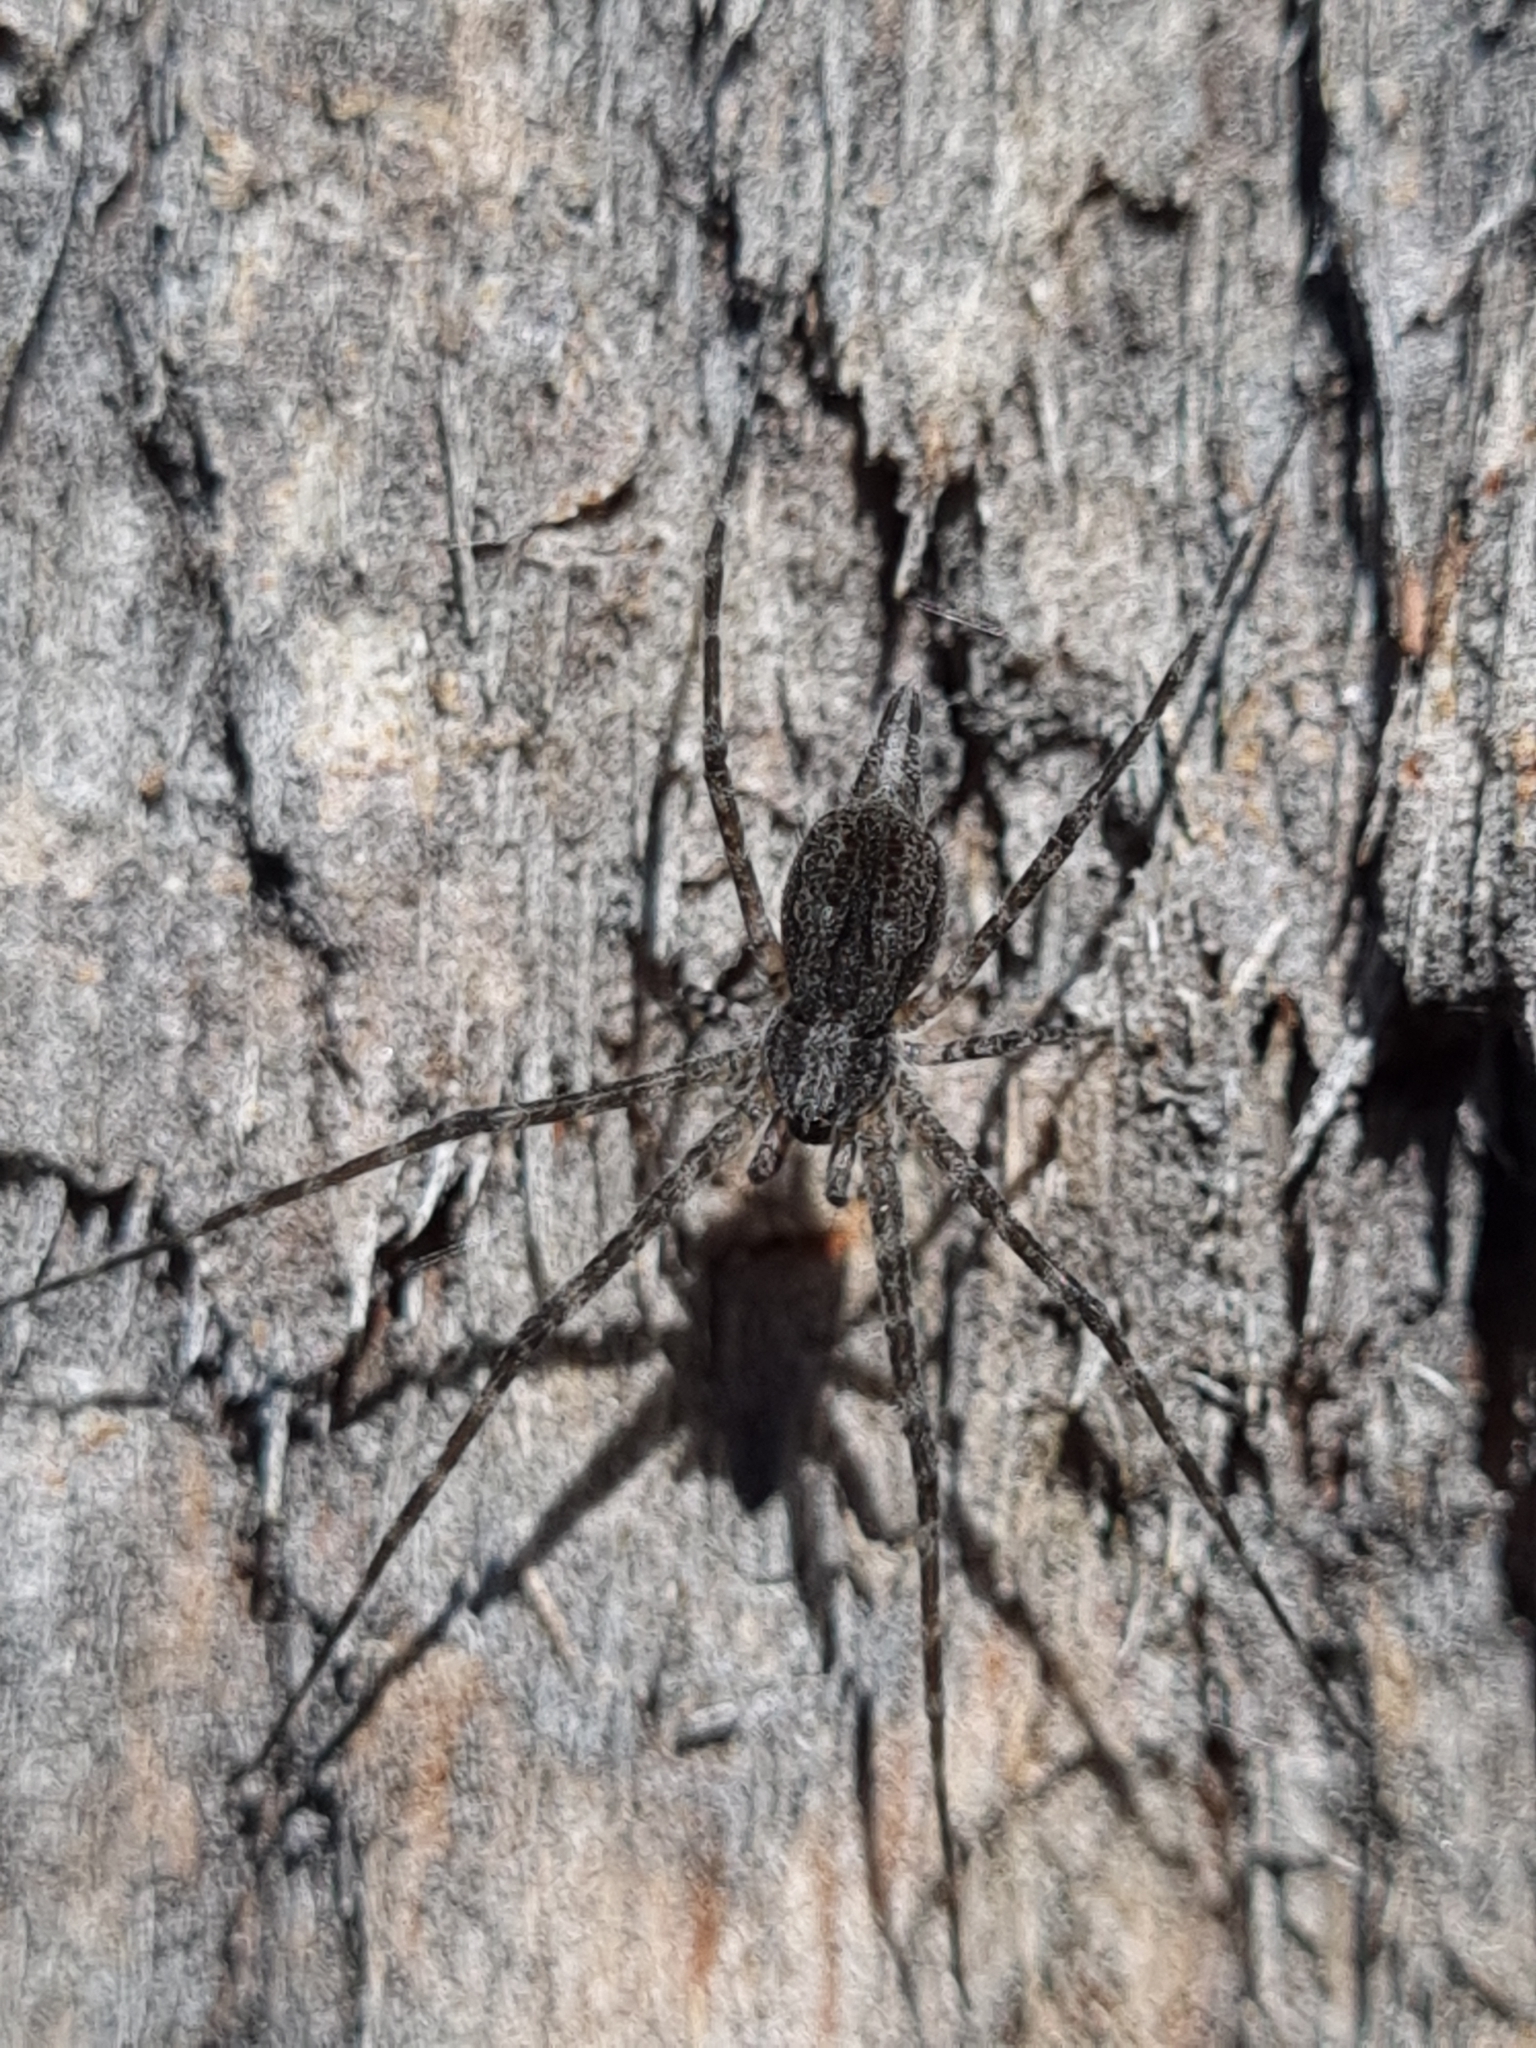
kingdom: Animalia
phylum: Arthropoda
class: Arachnida
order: Araneae
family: Hersiliidae
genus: Tamopsis
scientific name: Tamopsis fickerti
